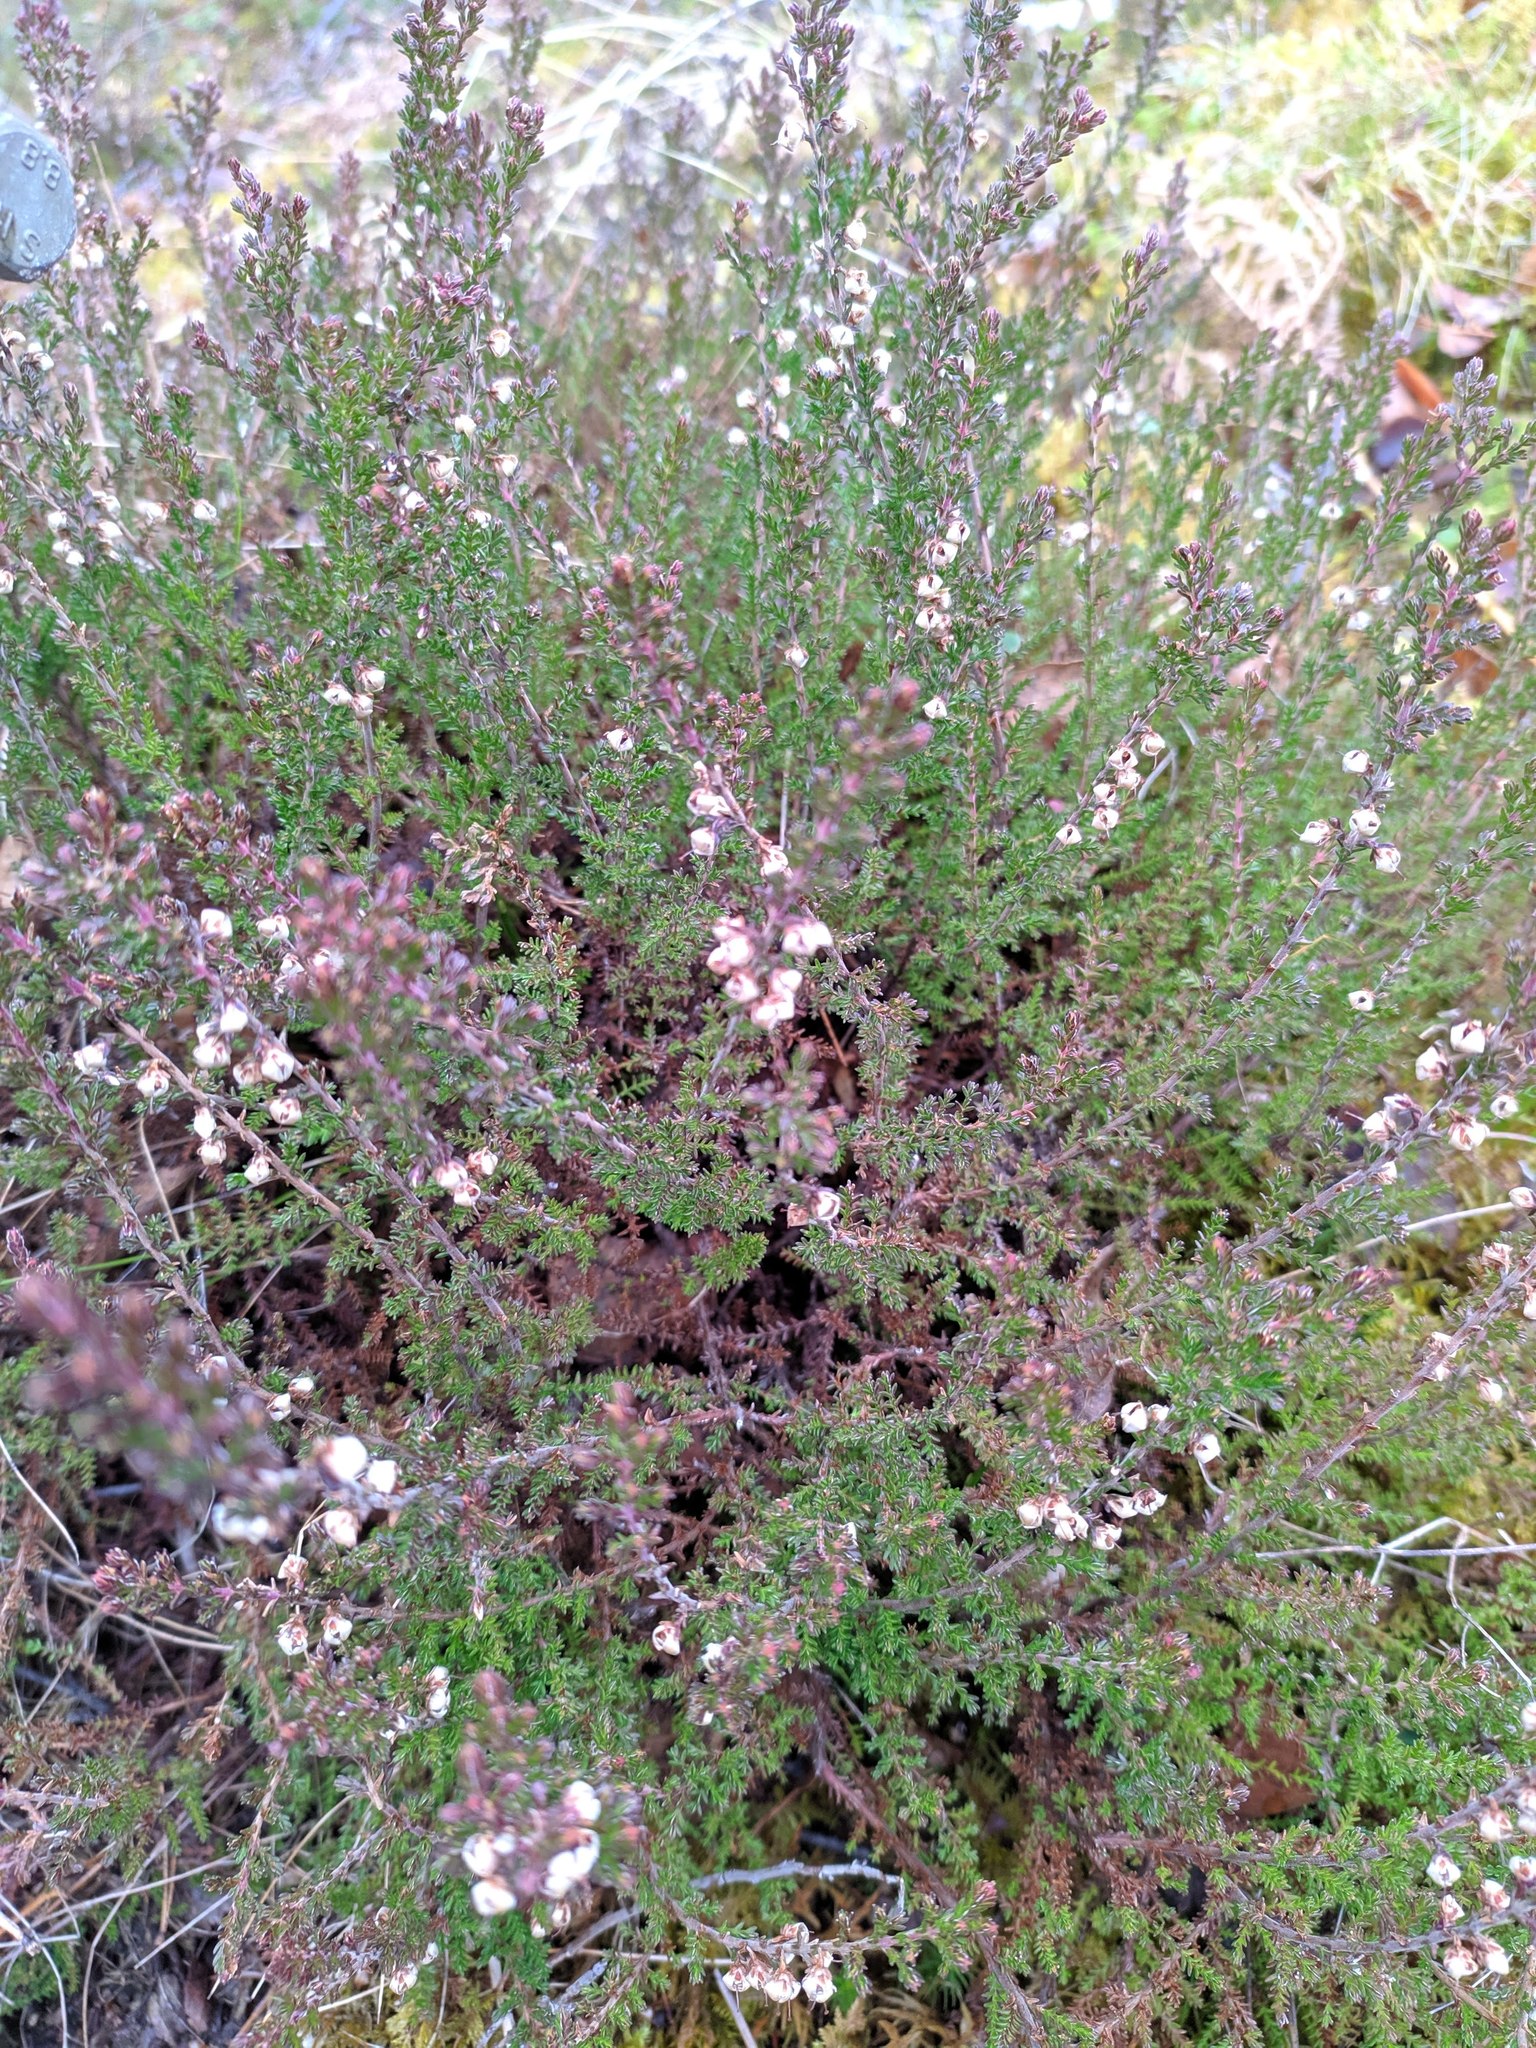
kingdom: Plantae
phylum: Tracheophyta
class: Magnoliopsida
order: Ericales
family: Ericaceae
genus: Calluna
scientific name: Calluna vulgaris
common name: Heather
